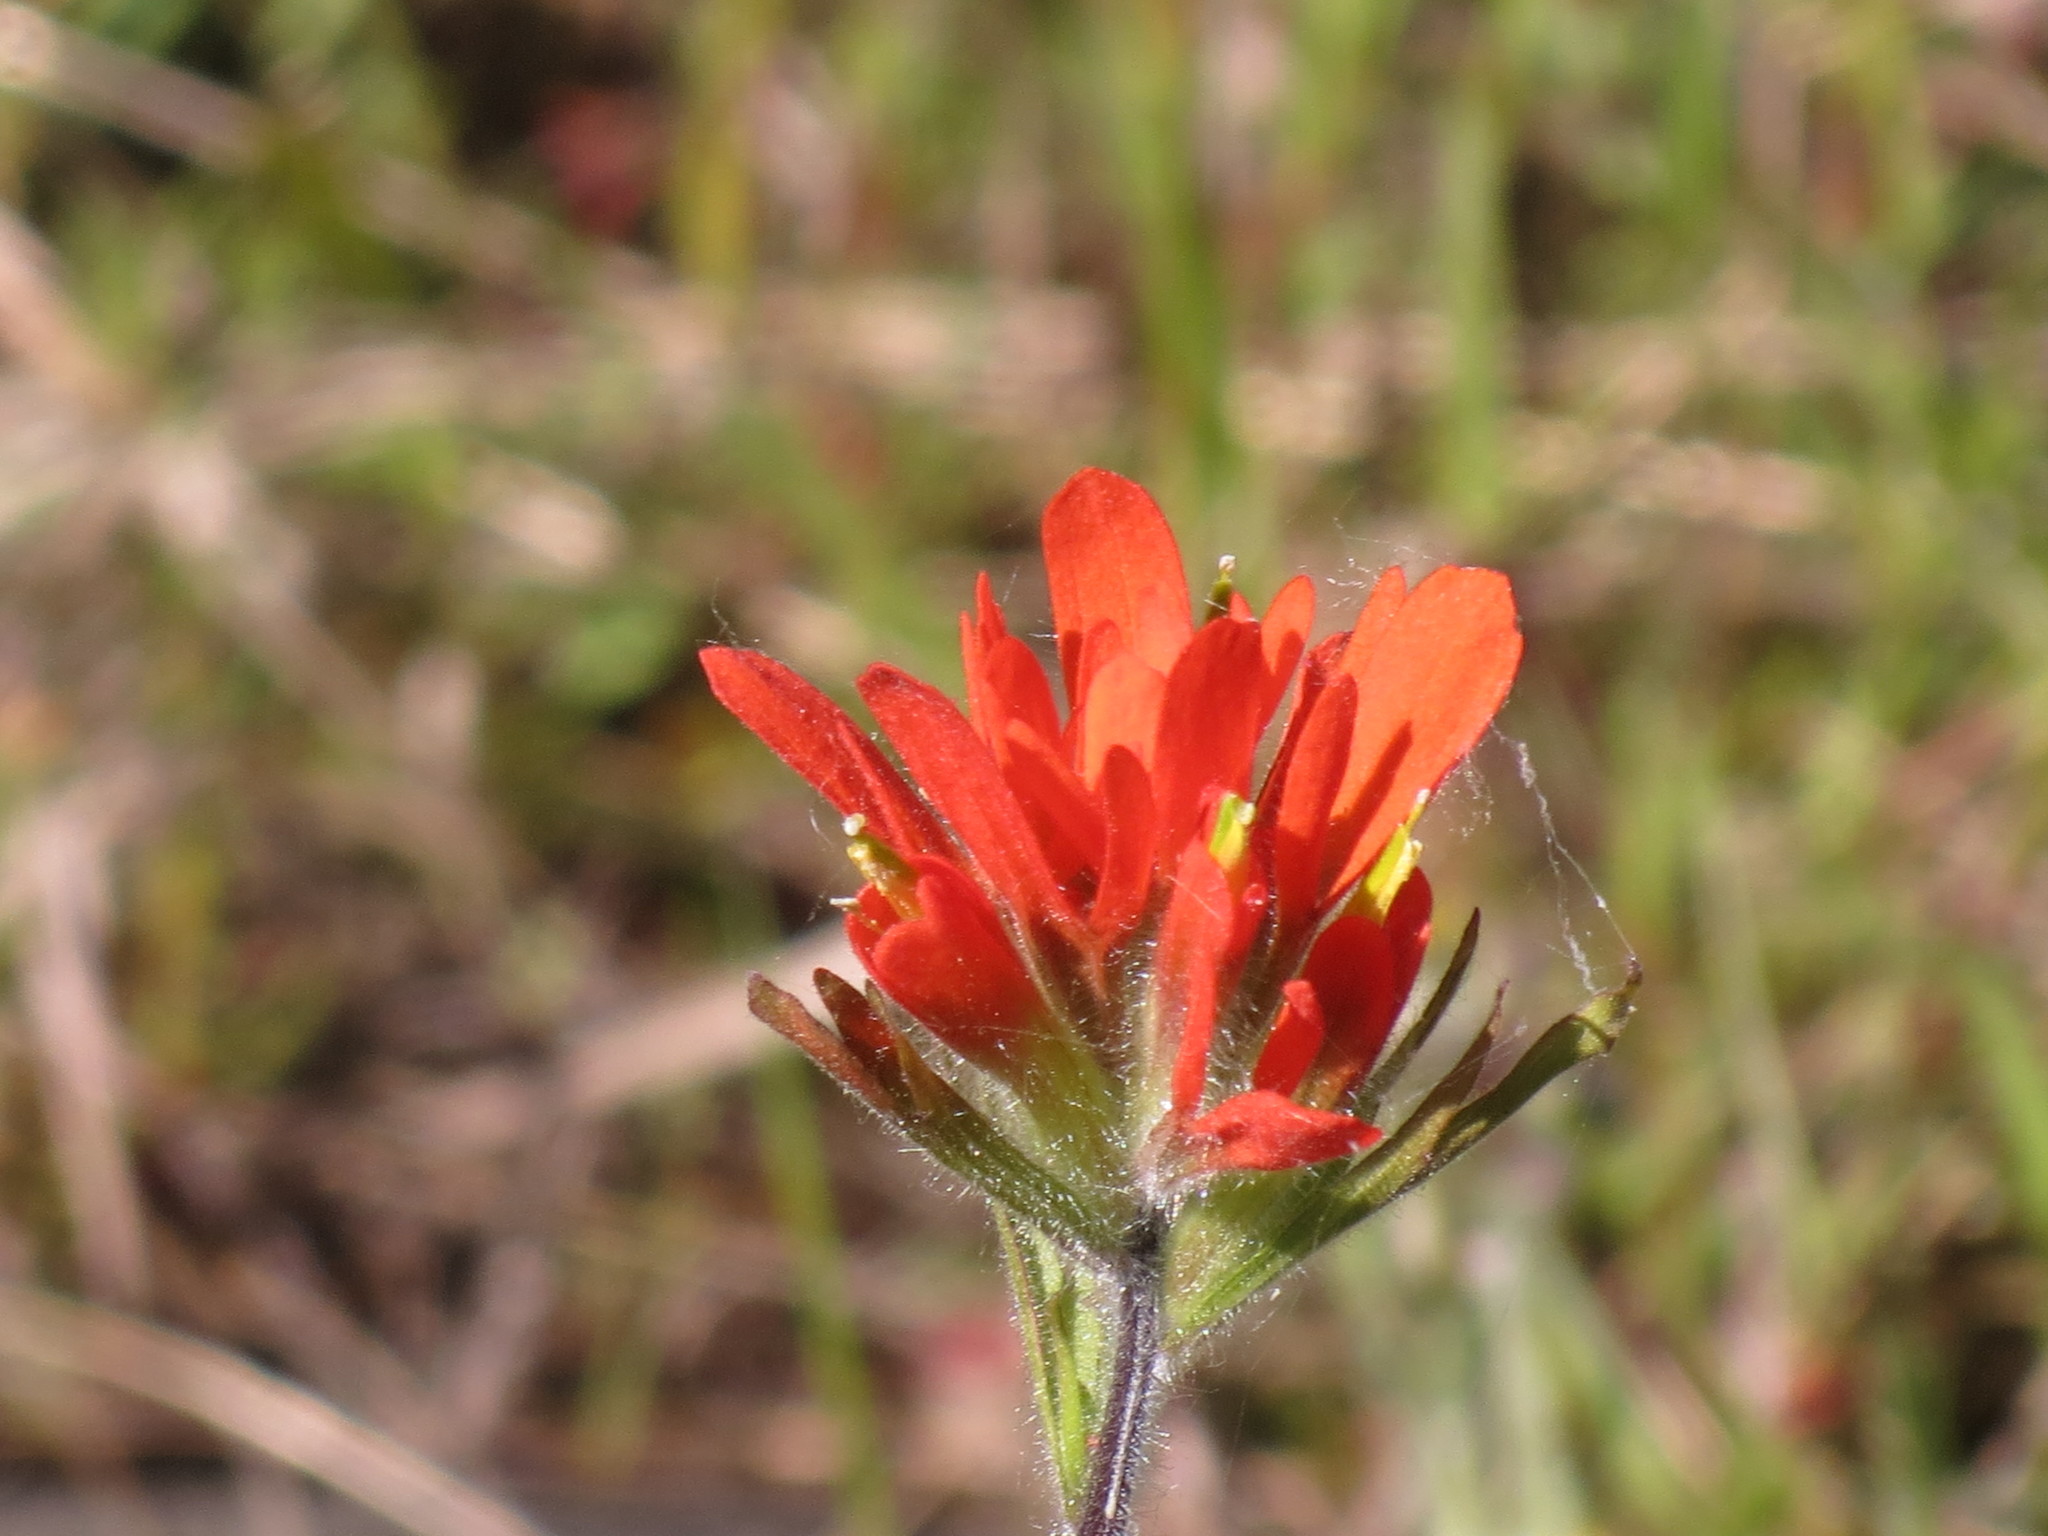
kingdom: Plantae
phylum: Tracheophyta
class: Magnoliopsida
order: Lamiales
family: Orobanchaceae
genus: Castilleja
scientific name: Castilleja coccinea
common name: Scarlet paintbrush
